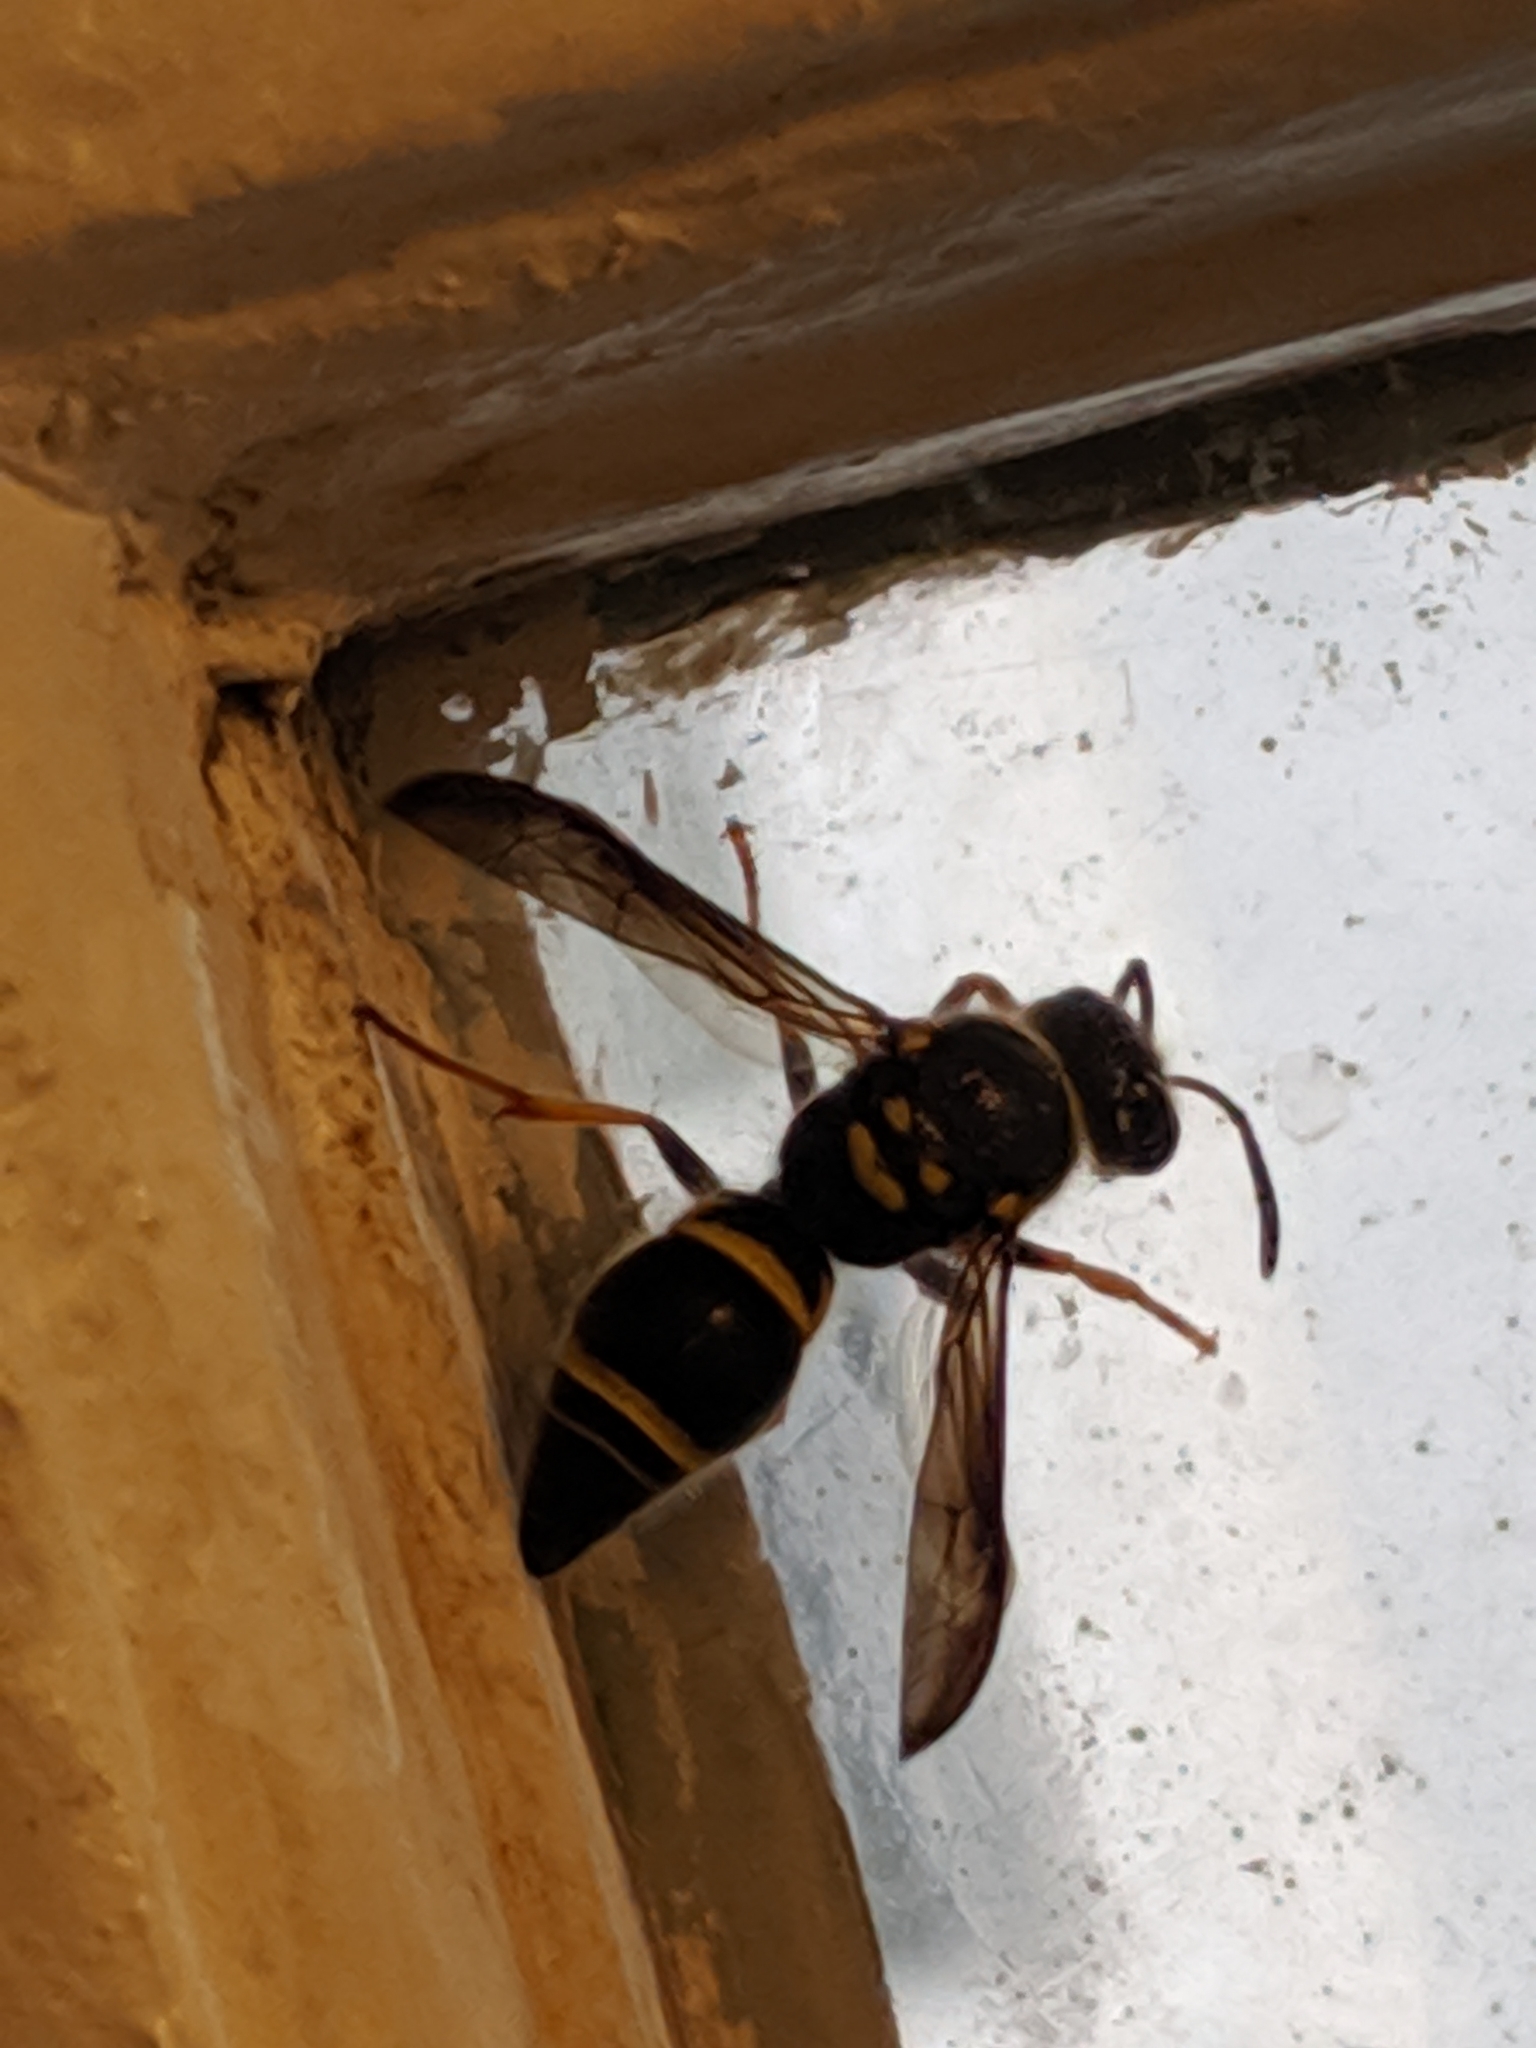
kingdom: Animalia
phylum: Arthropoda
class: Insecta
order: Hymenoptera
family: Vespidae
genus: Ancistrocerus
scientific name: Ancistrocerus campestris
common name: Smiling mason wasp
